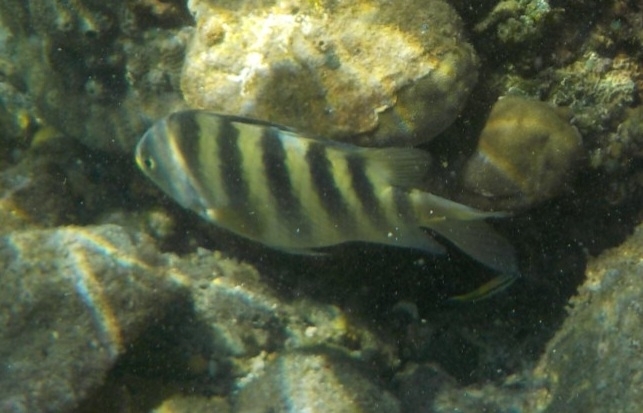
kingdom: Animalia
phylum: Chordata
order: Perciformes
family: Pomacentridae
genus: Abudefduf
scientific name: Abudefduf septemfasciatus
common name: Banded sergeant
